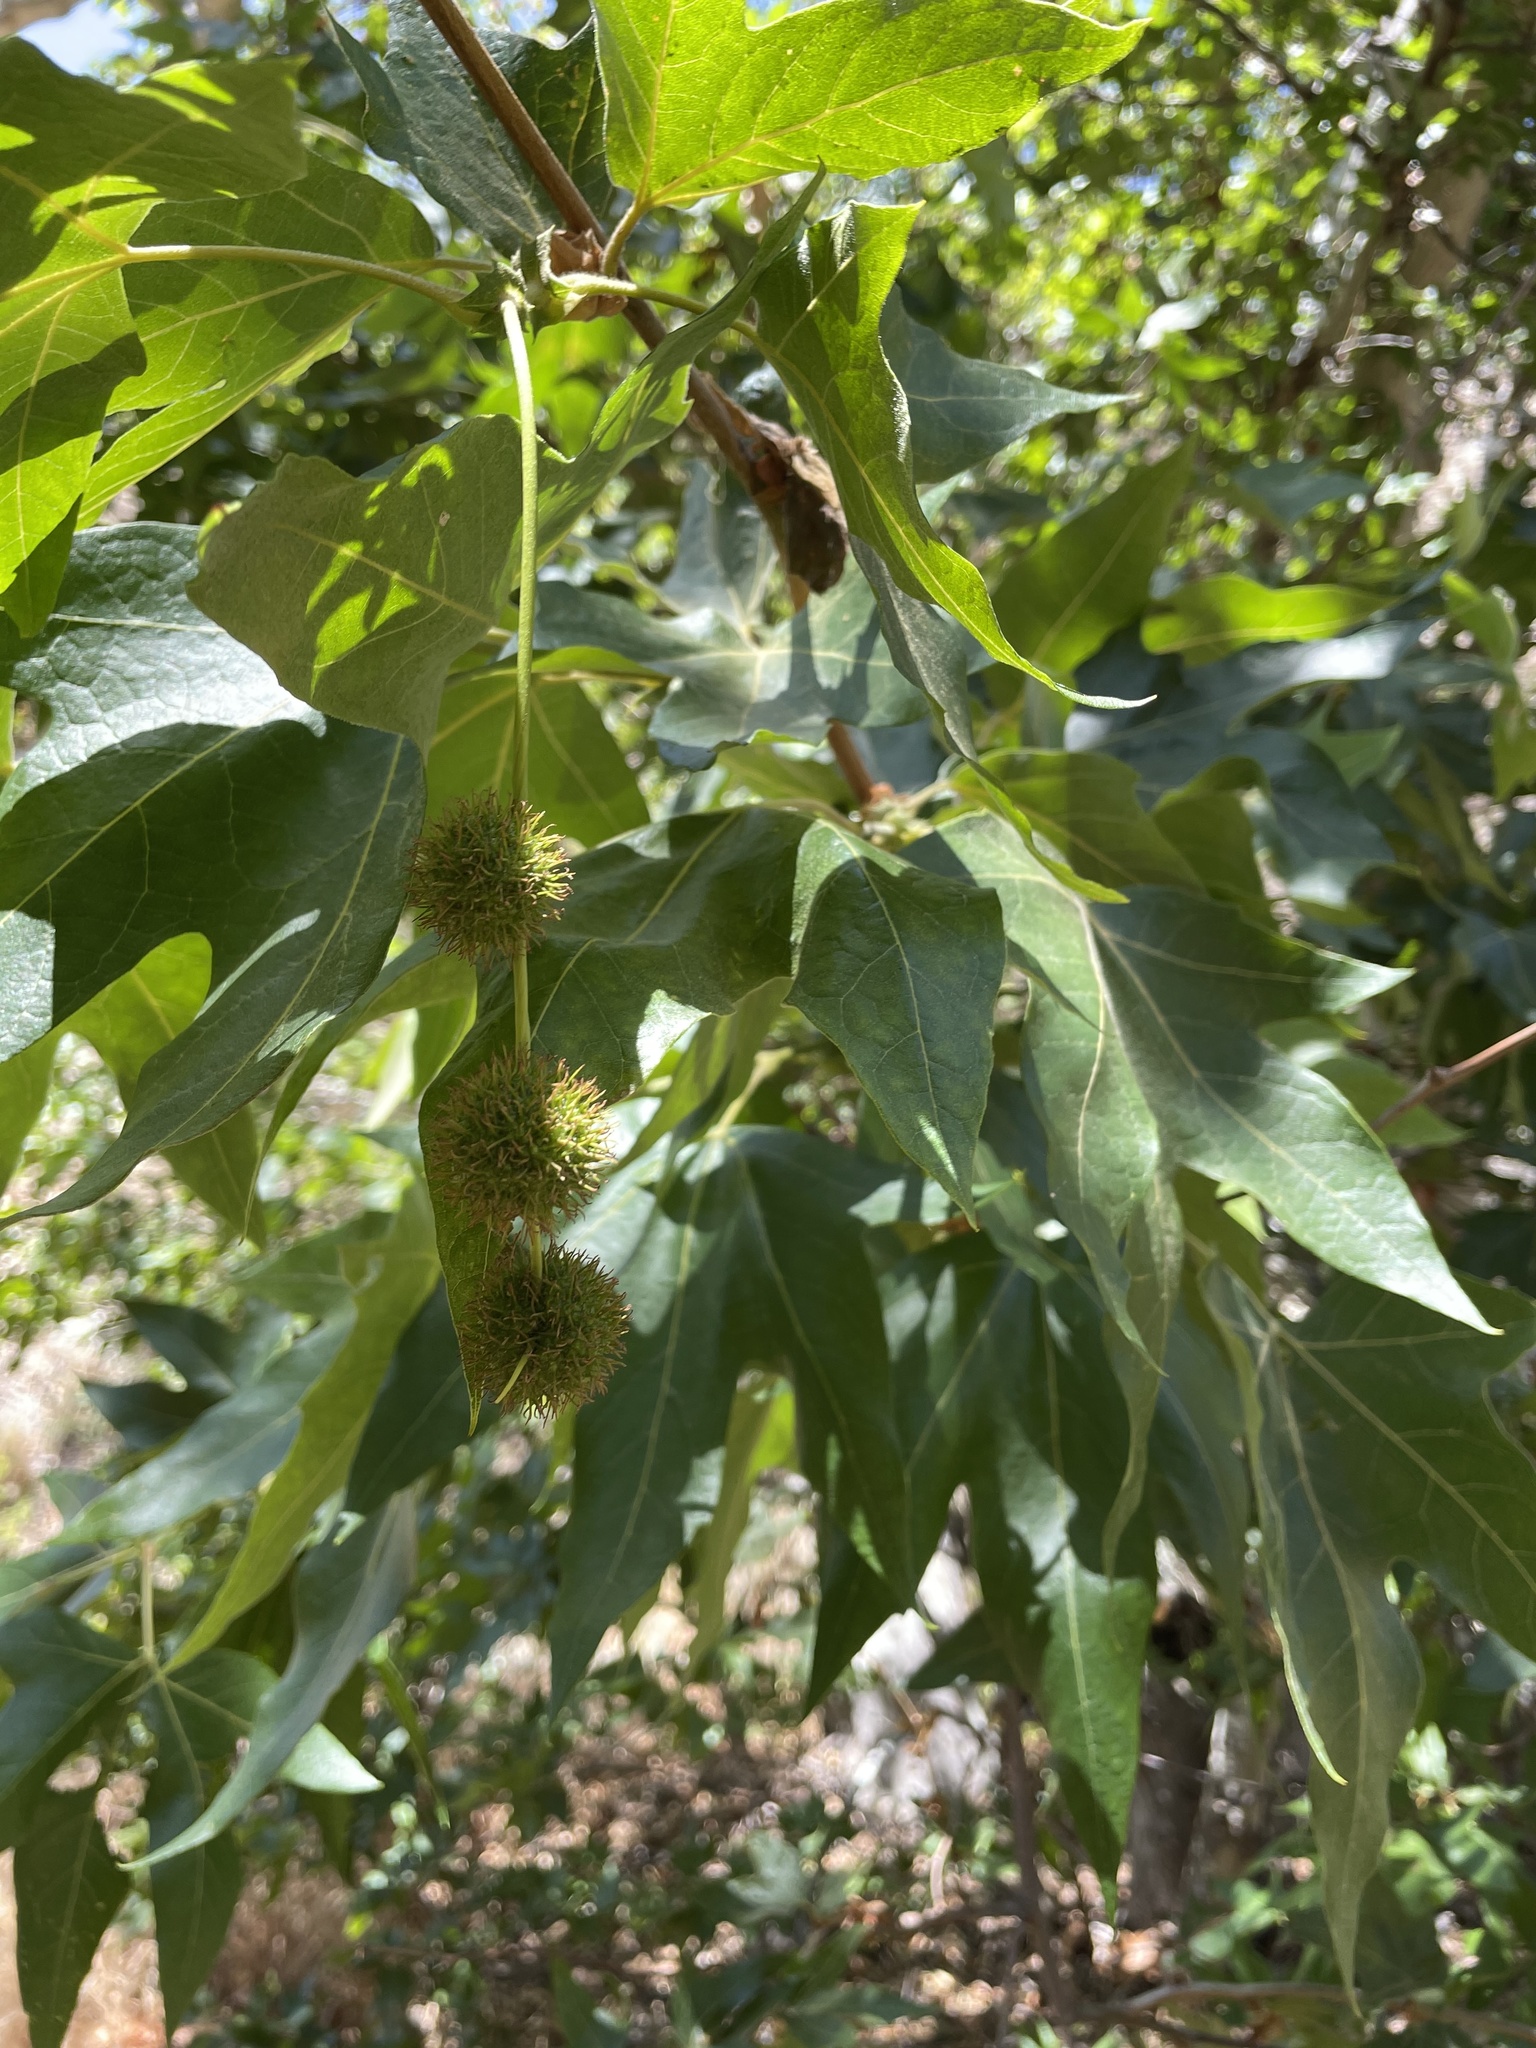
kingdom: Plantae
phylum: Tracheophyta
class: Magnoliopsida
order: Proteales
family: Platanaceae
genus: Platanus
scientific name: Platanus racemosa
